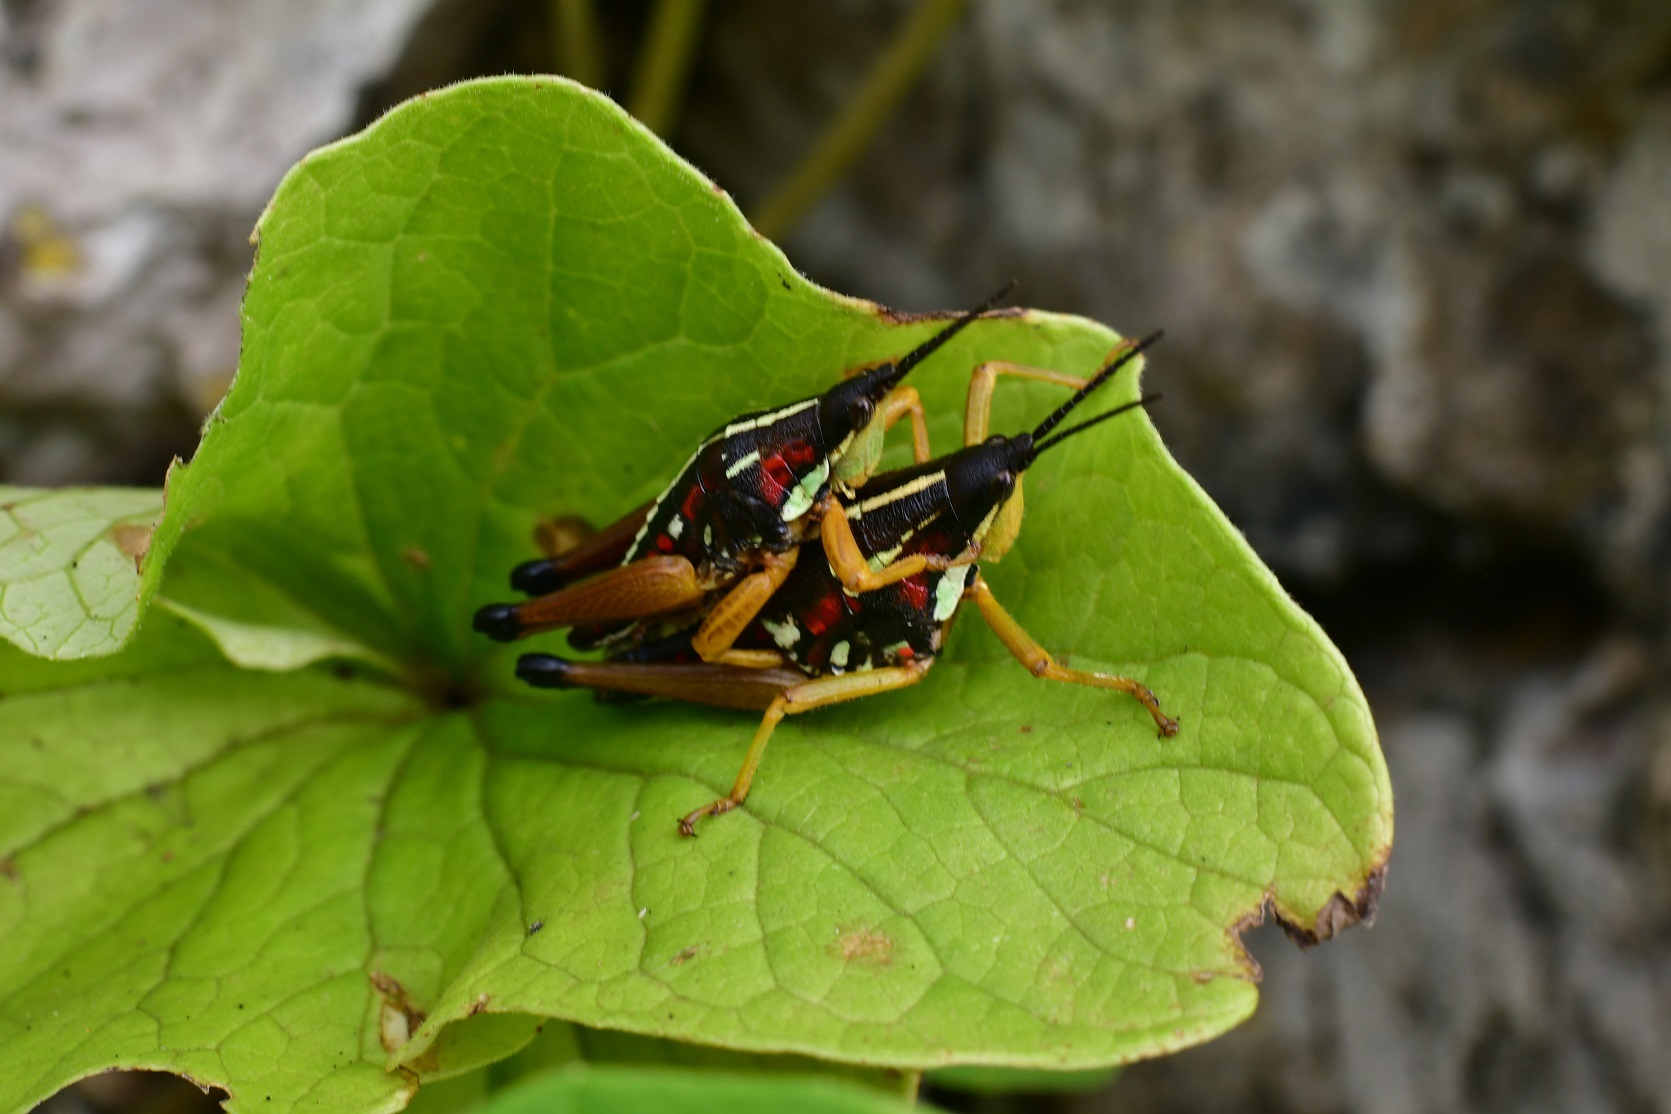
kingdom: Animalia
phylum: Arthropoda
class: Insecta
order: Orthoptera
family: Pyrgomorphidae
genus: Sphenarium
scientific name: Sphenarium histrio
